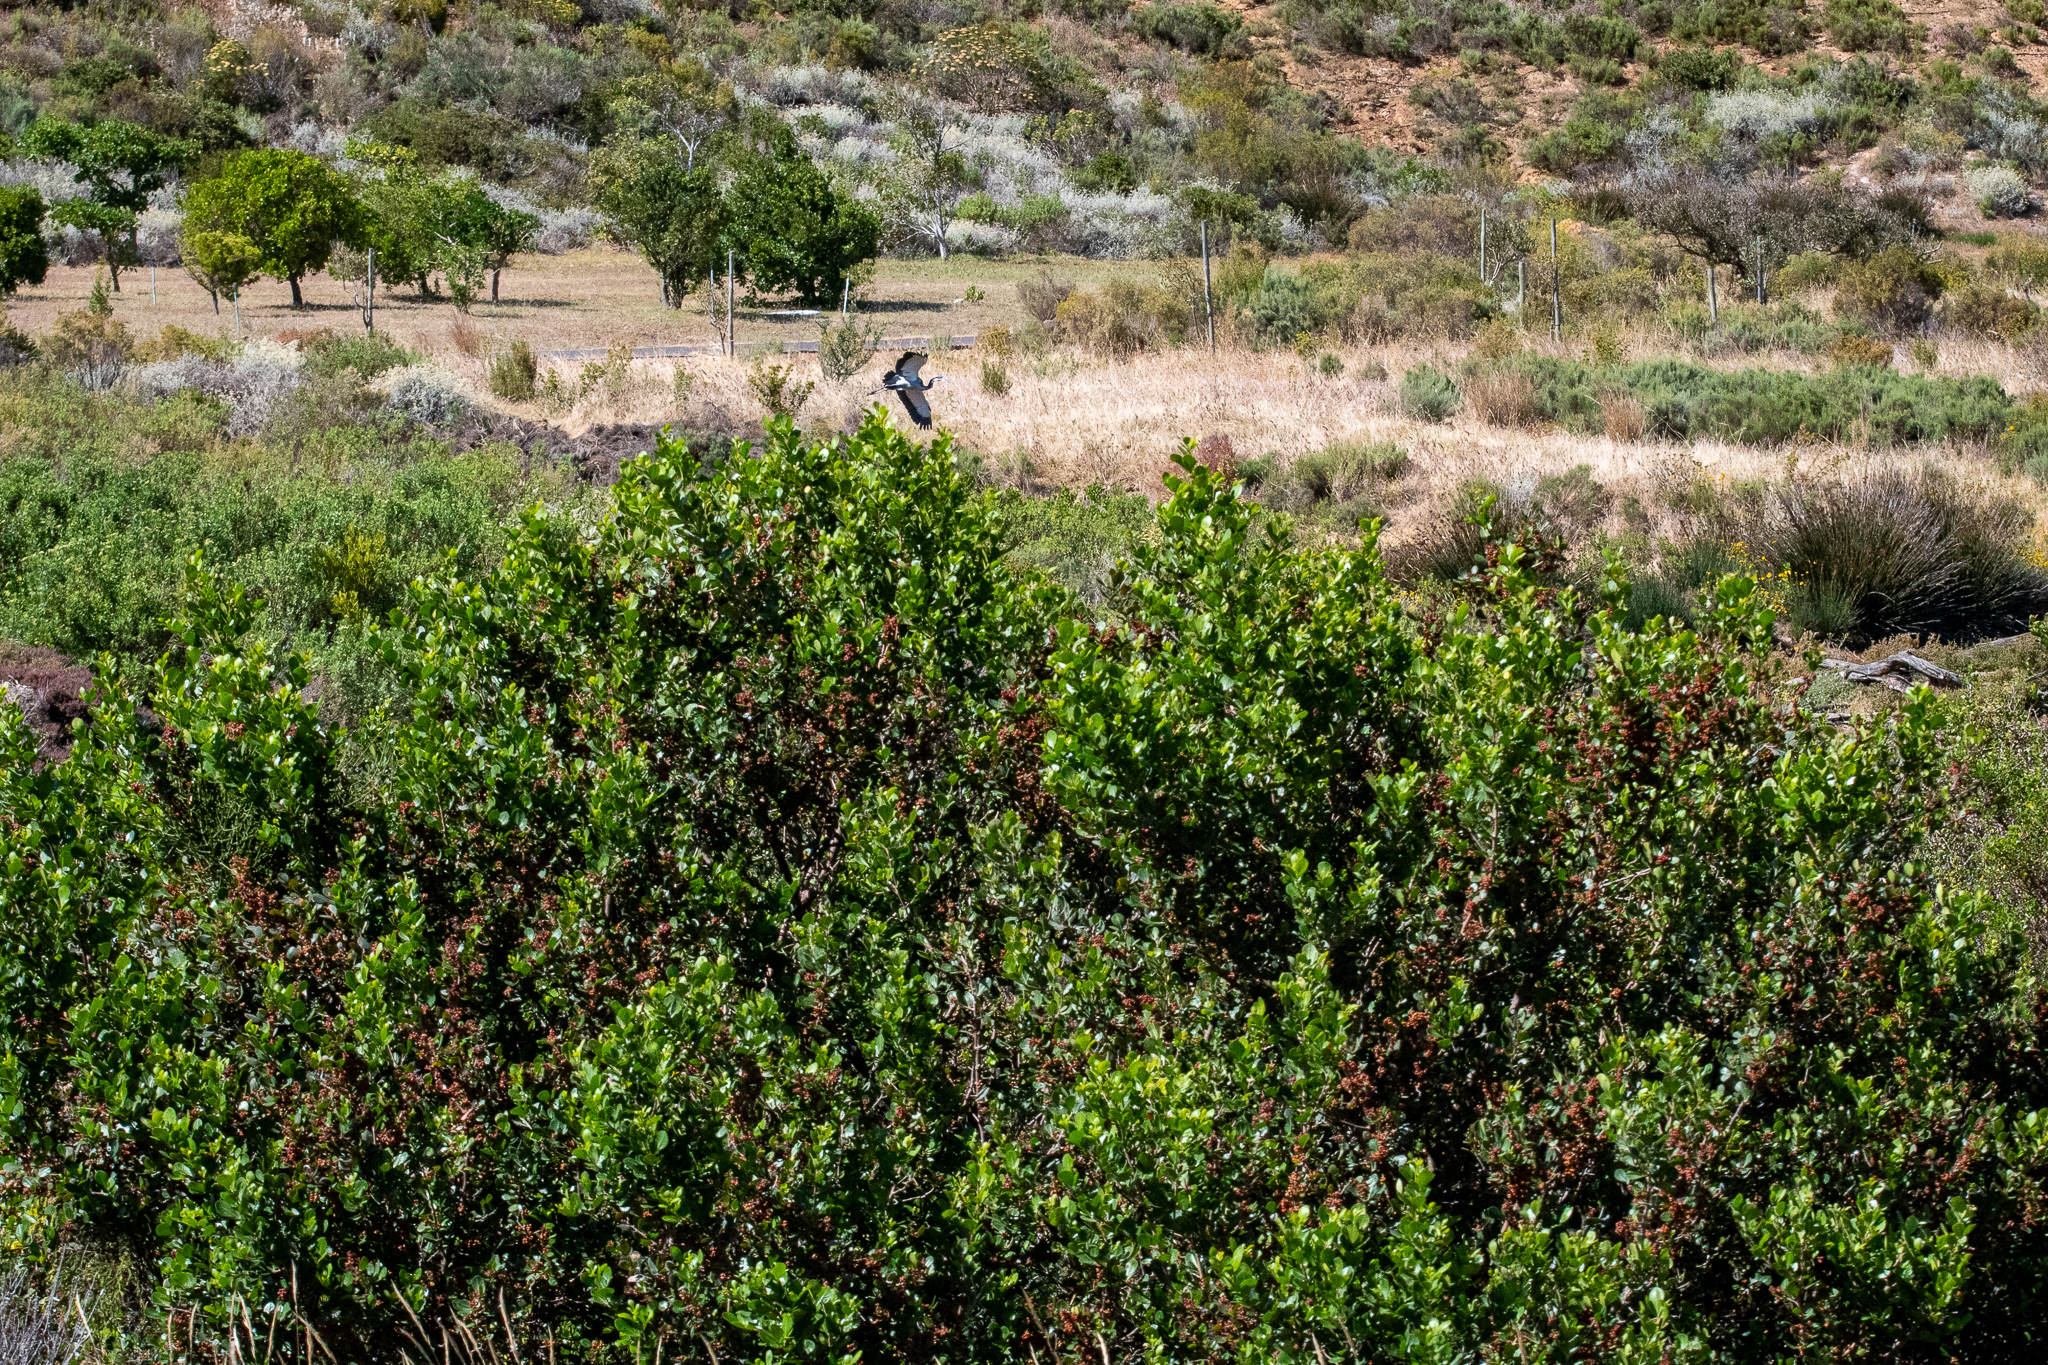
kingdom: Plantae
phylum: Tracheophyta
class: Magnoliopsida
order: Sapindales
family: Anacardiaceae
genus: Searsia
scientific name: Searsia lucida
